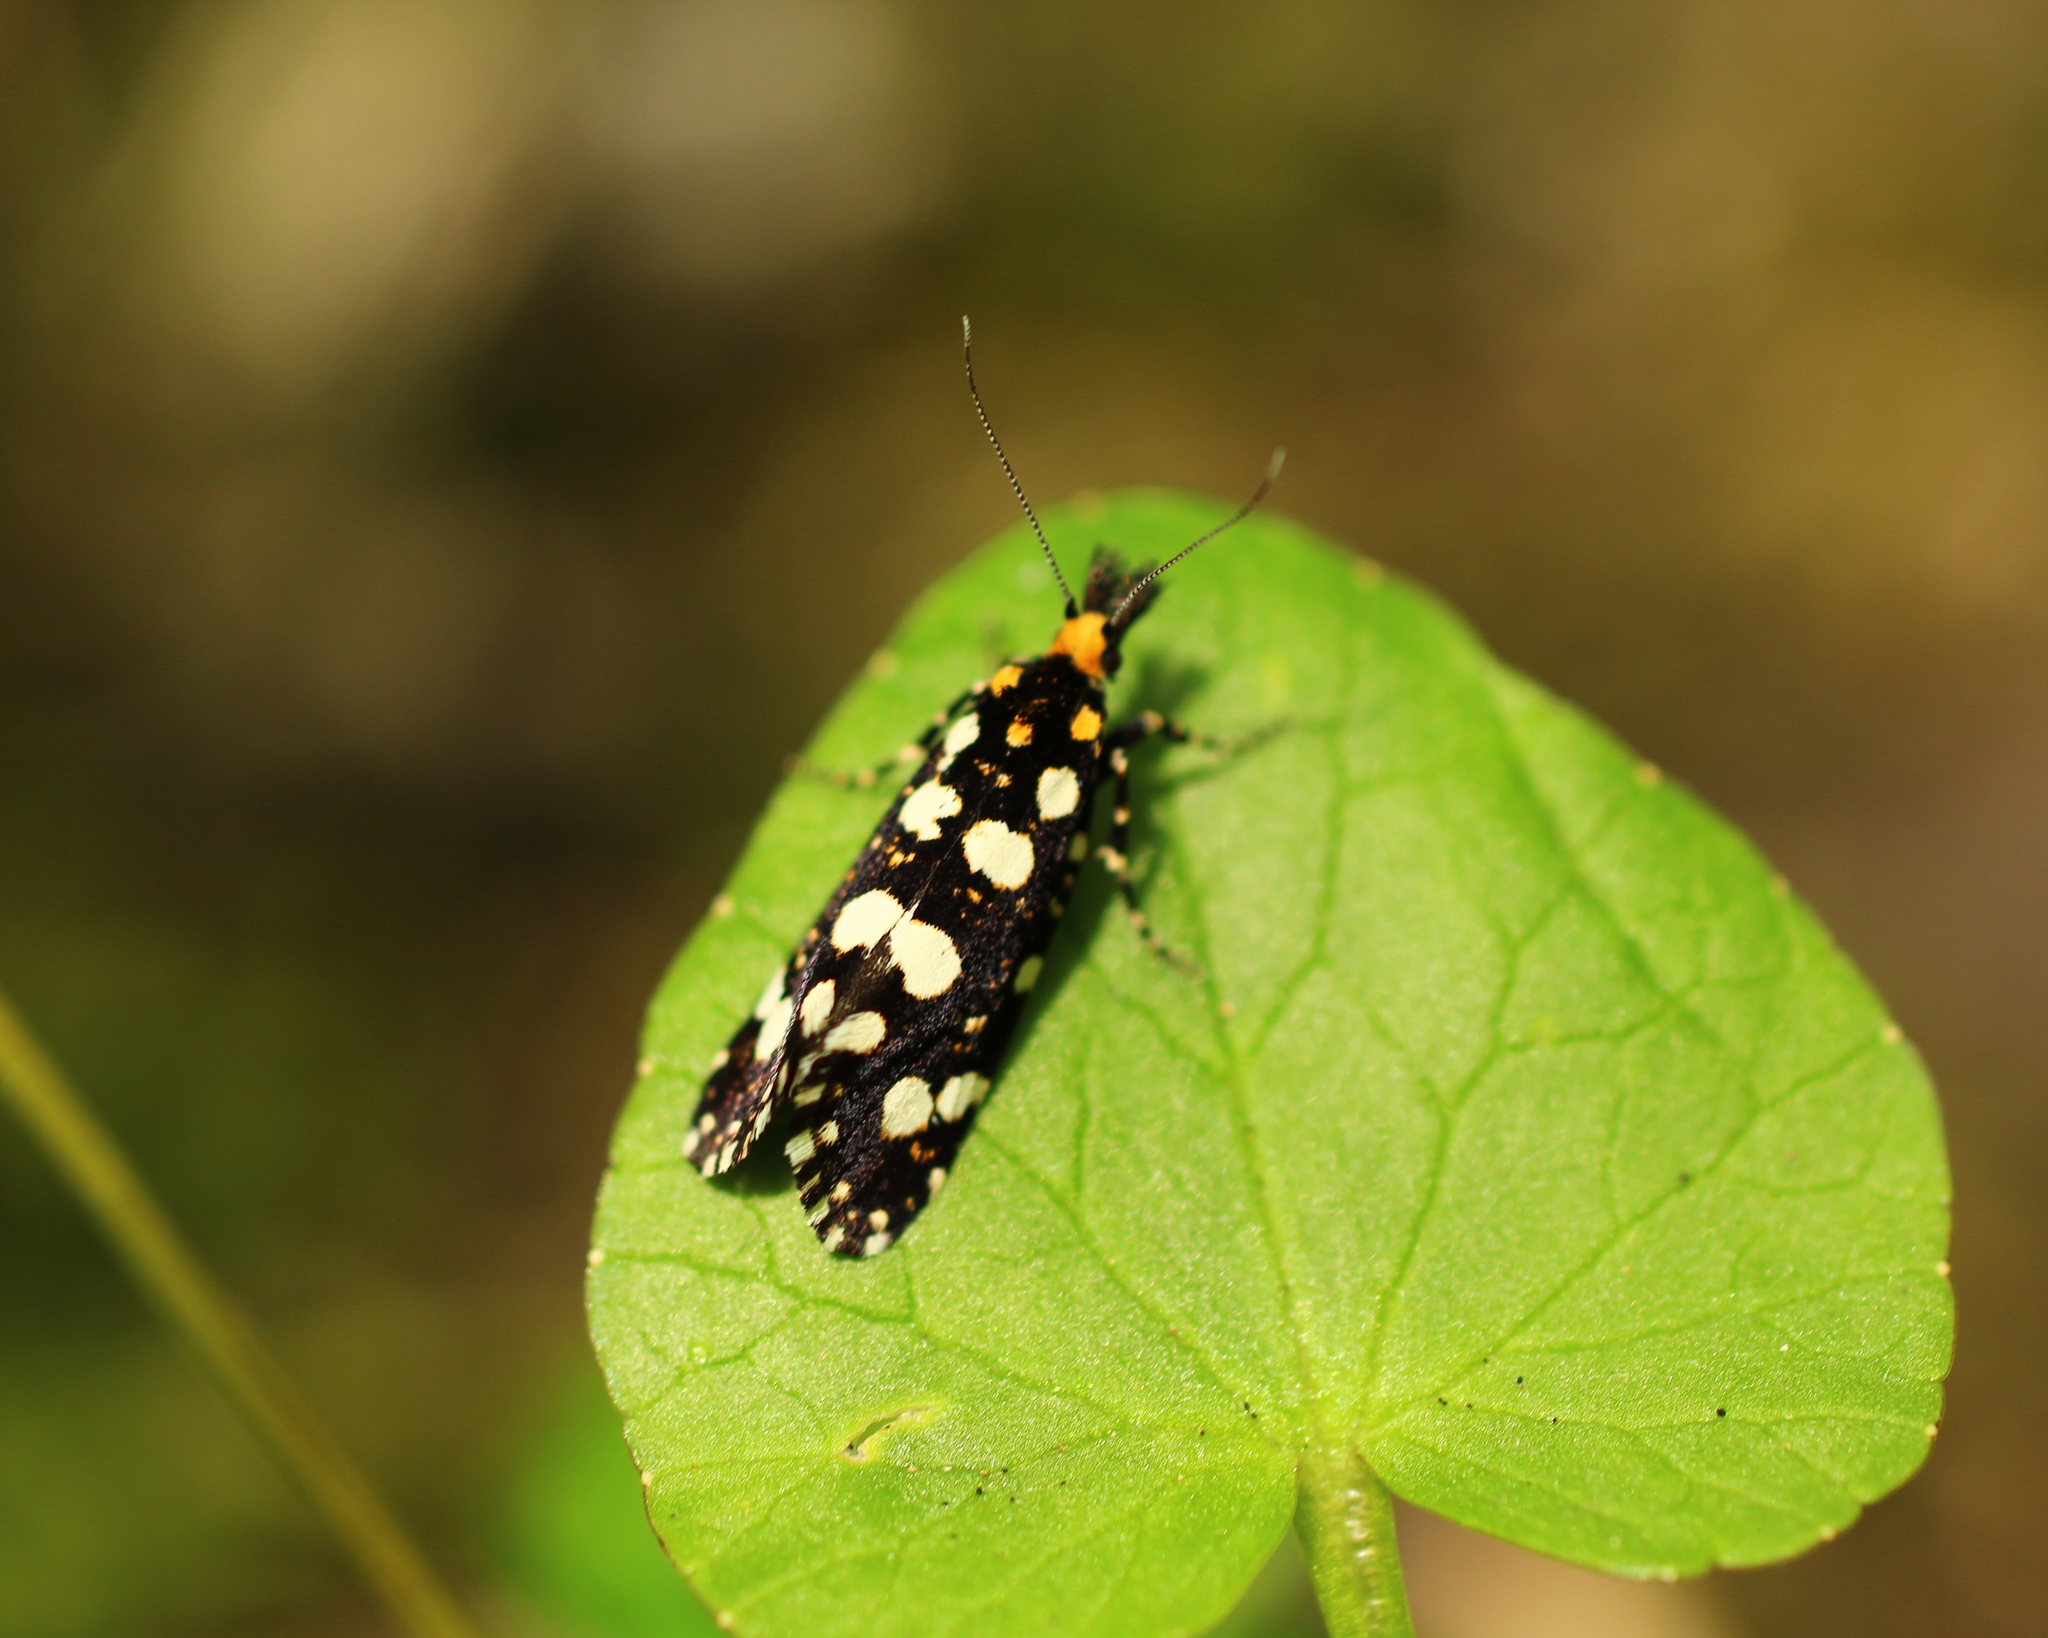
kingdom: Animalia
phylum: Arthropoda
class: Insecta
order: Lepidoptera
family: Tineidae
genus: Euplocamus
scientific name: Euplocamus anthracinalis
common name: Black clothes
